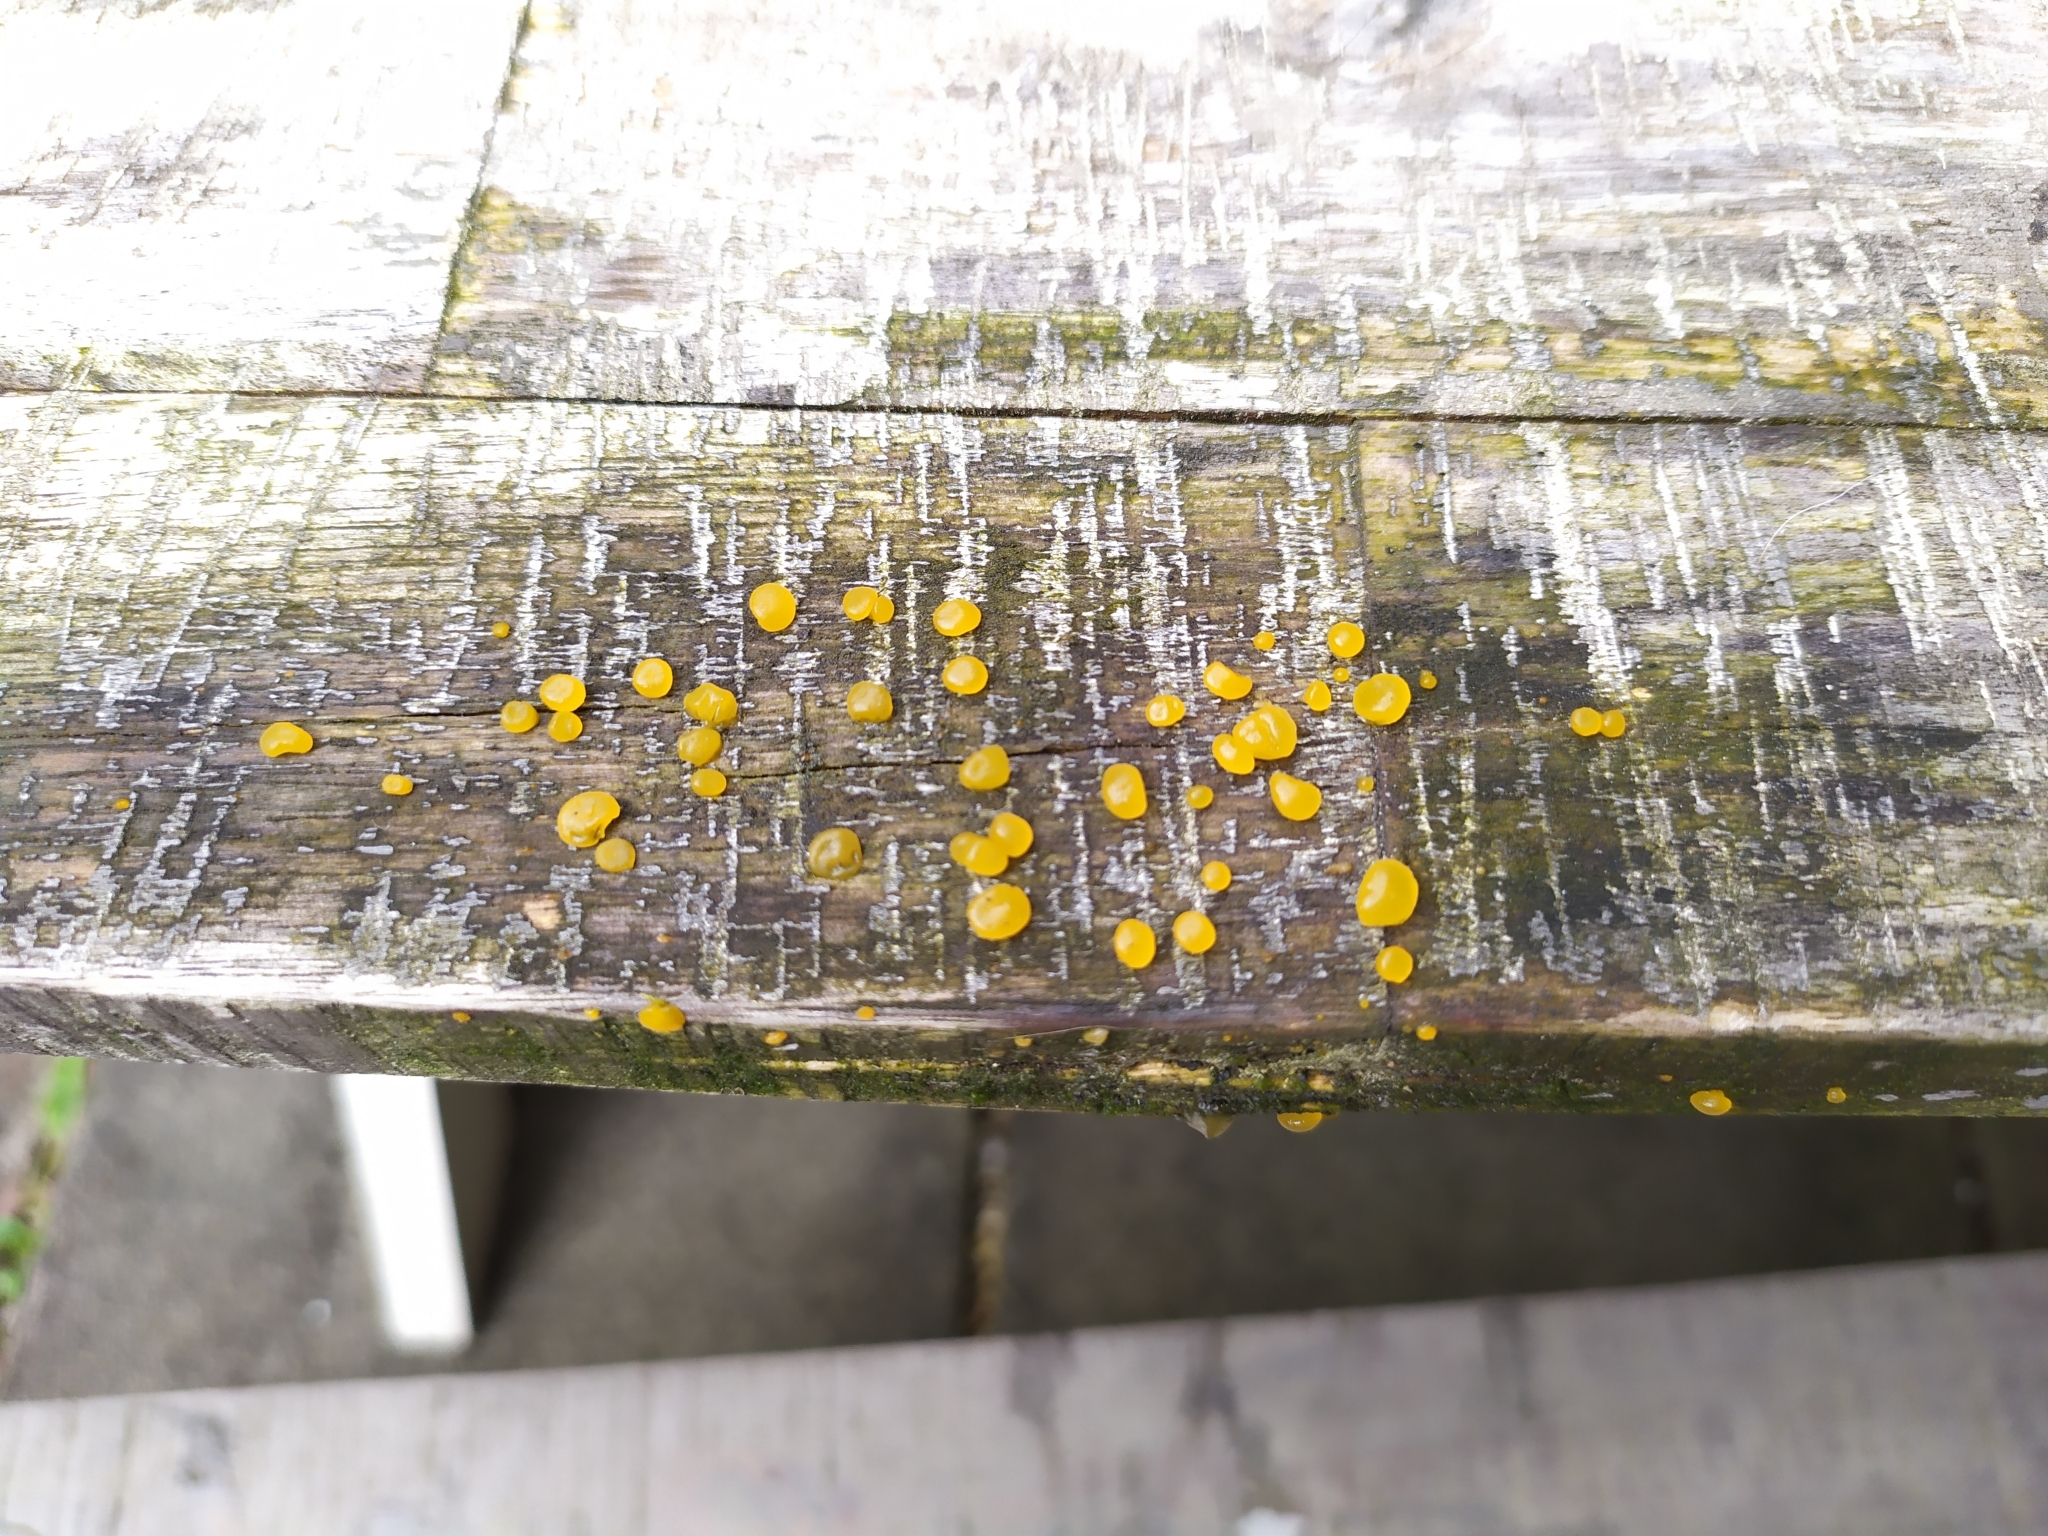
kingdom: Fungi
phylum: Basidiomycota
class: Dacrymycetes
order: Dacrymycetales
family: Dacrymycetaceae
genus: Dacrymyces
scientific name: Dacrymyces stillatus
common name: Common jelly spot
